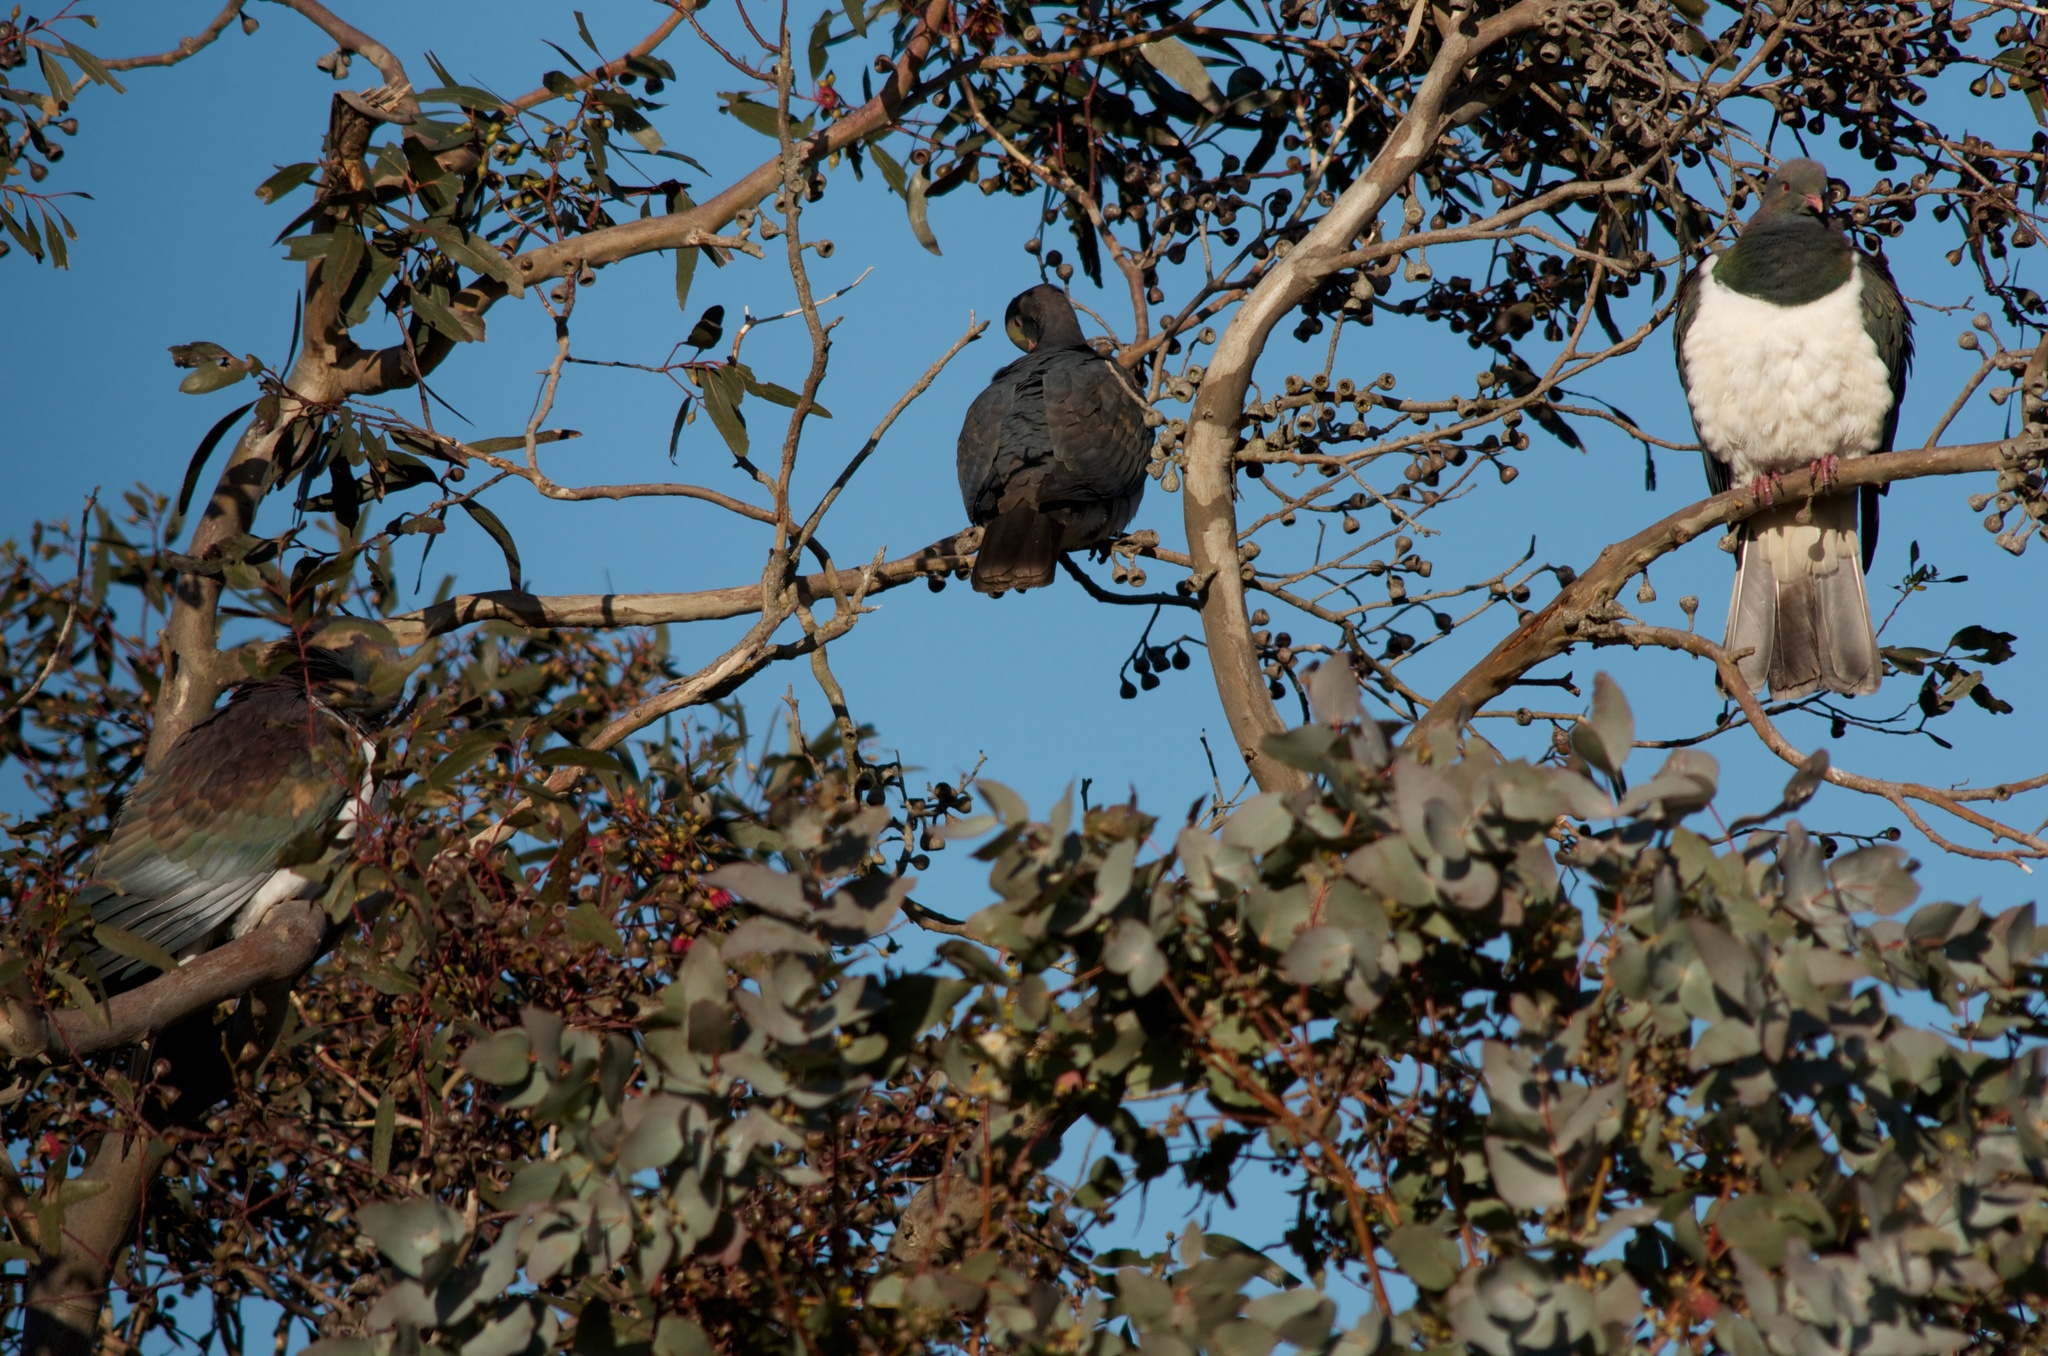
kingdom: Animalia
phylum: Chordata
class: Aves
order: Columbiformes
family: Columbidae
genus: Hemiphaga
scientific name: Hemiphaga novaeseelandiae
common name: New zealand pigeon
